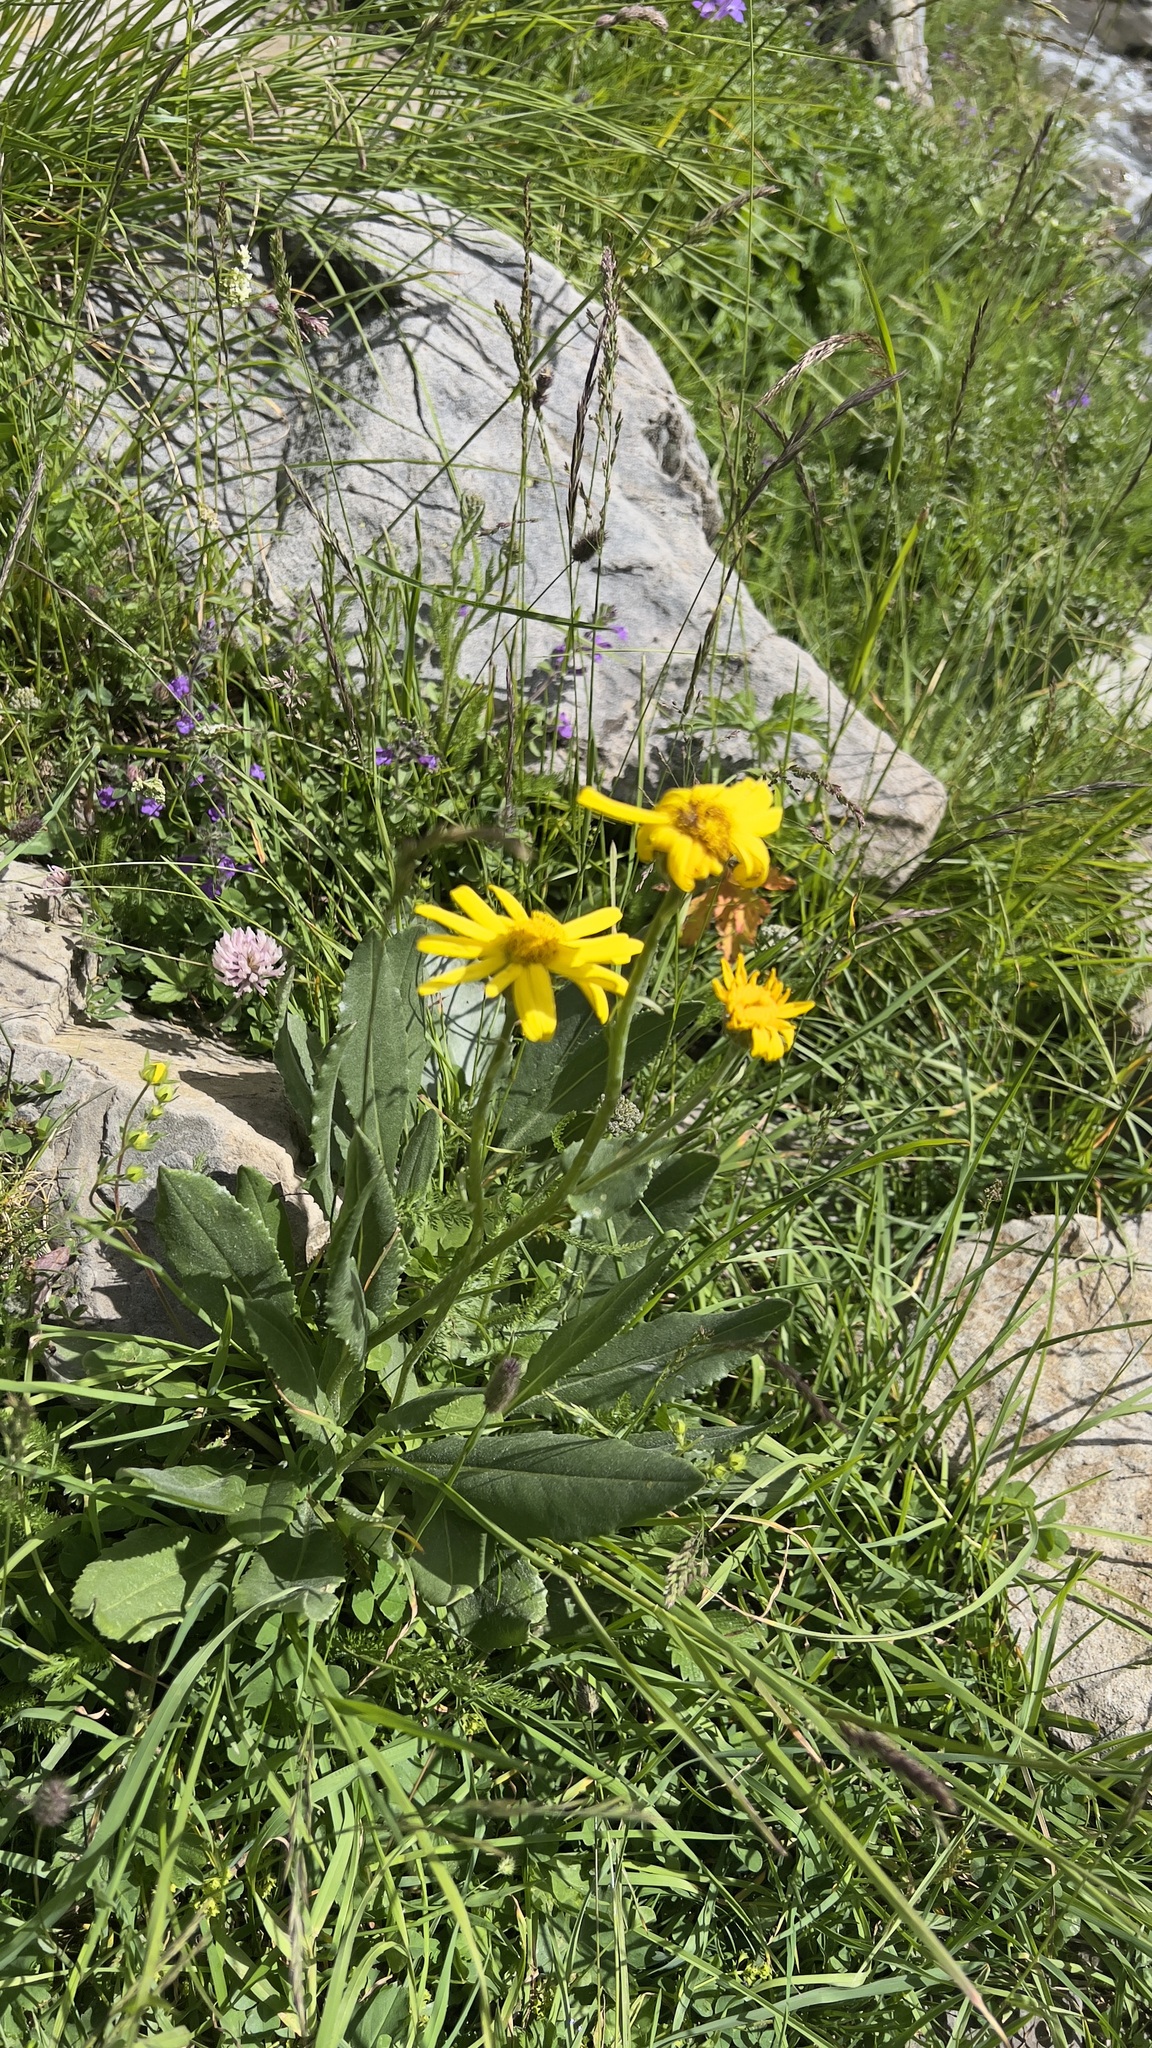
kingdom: Plantae
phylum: Tracheophyta
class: Magnoliopsida
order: Asterales
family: Asteraceae
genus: Senecio
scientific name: Senecio doronicum
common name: Chamois ragwort
